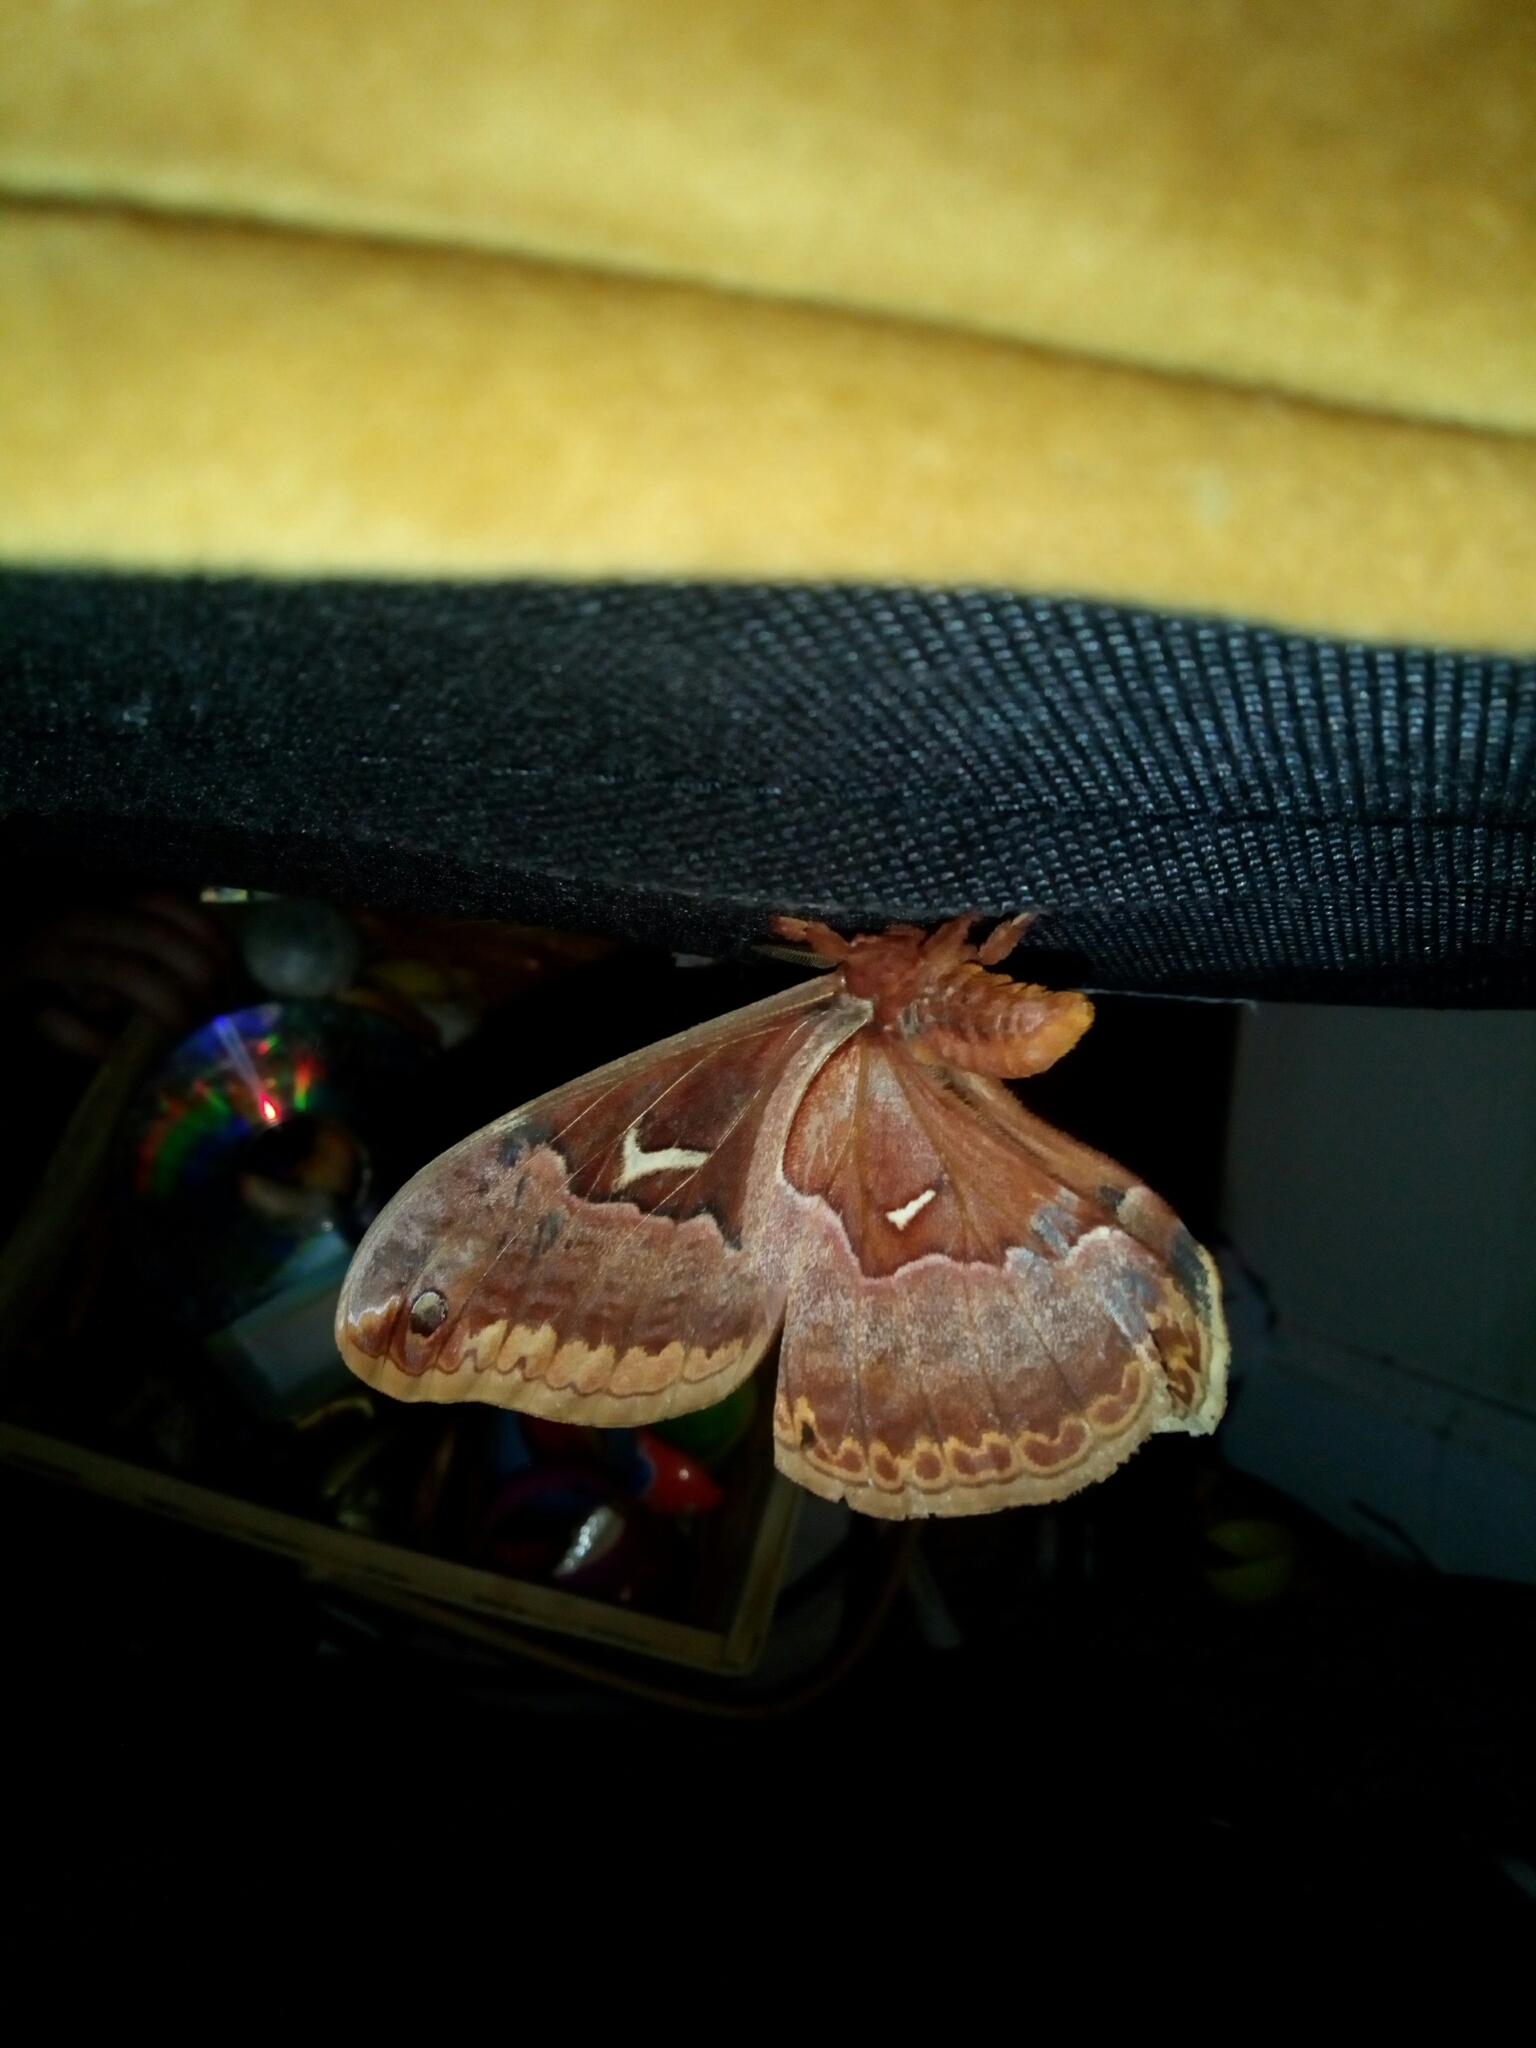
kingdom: Animalia
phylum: Arthropoda
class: Insecta
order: Lepidoptera
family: Saturniidae
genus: Callosamia
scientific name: Callosamia angulifera
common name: Tulip tree silkmoth
